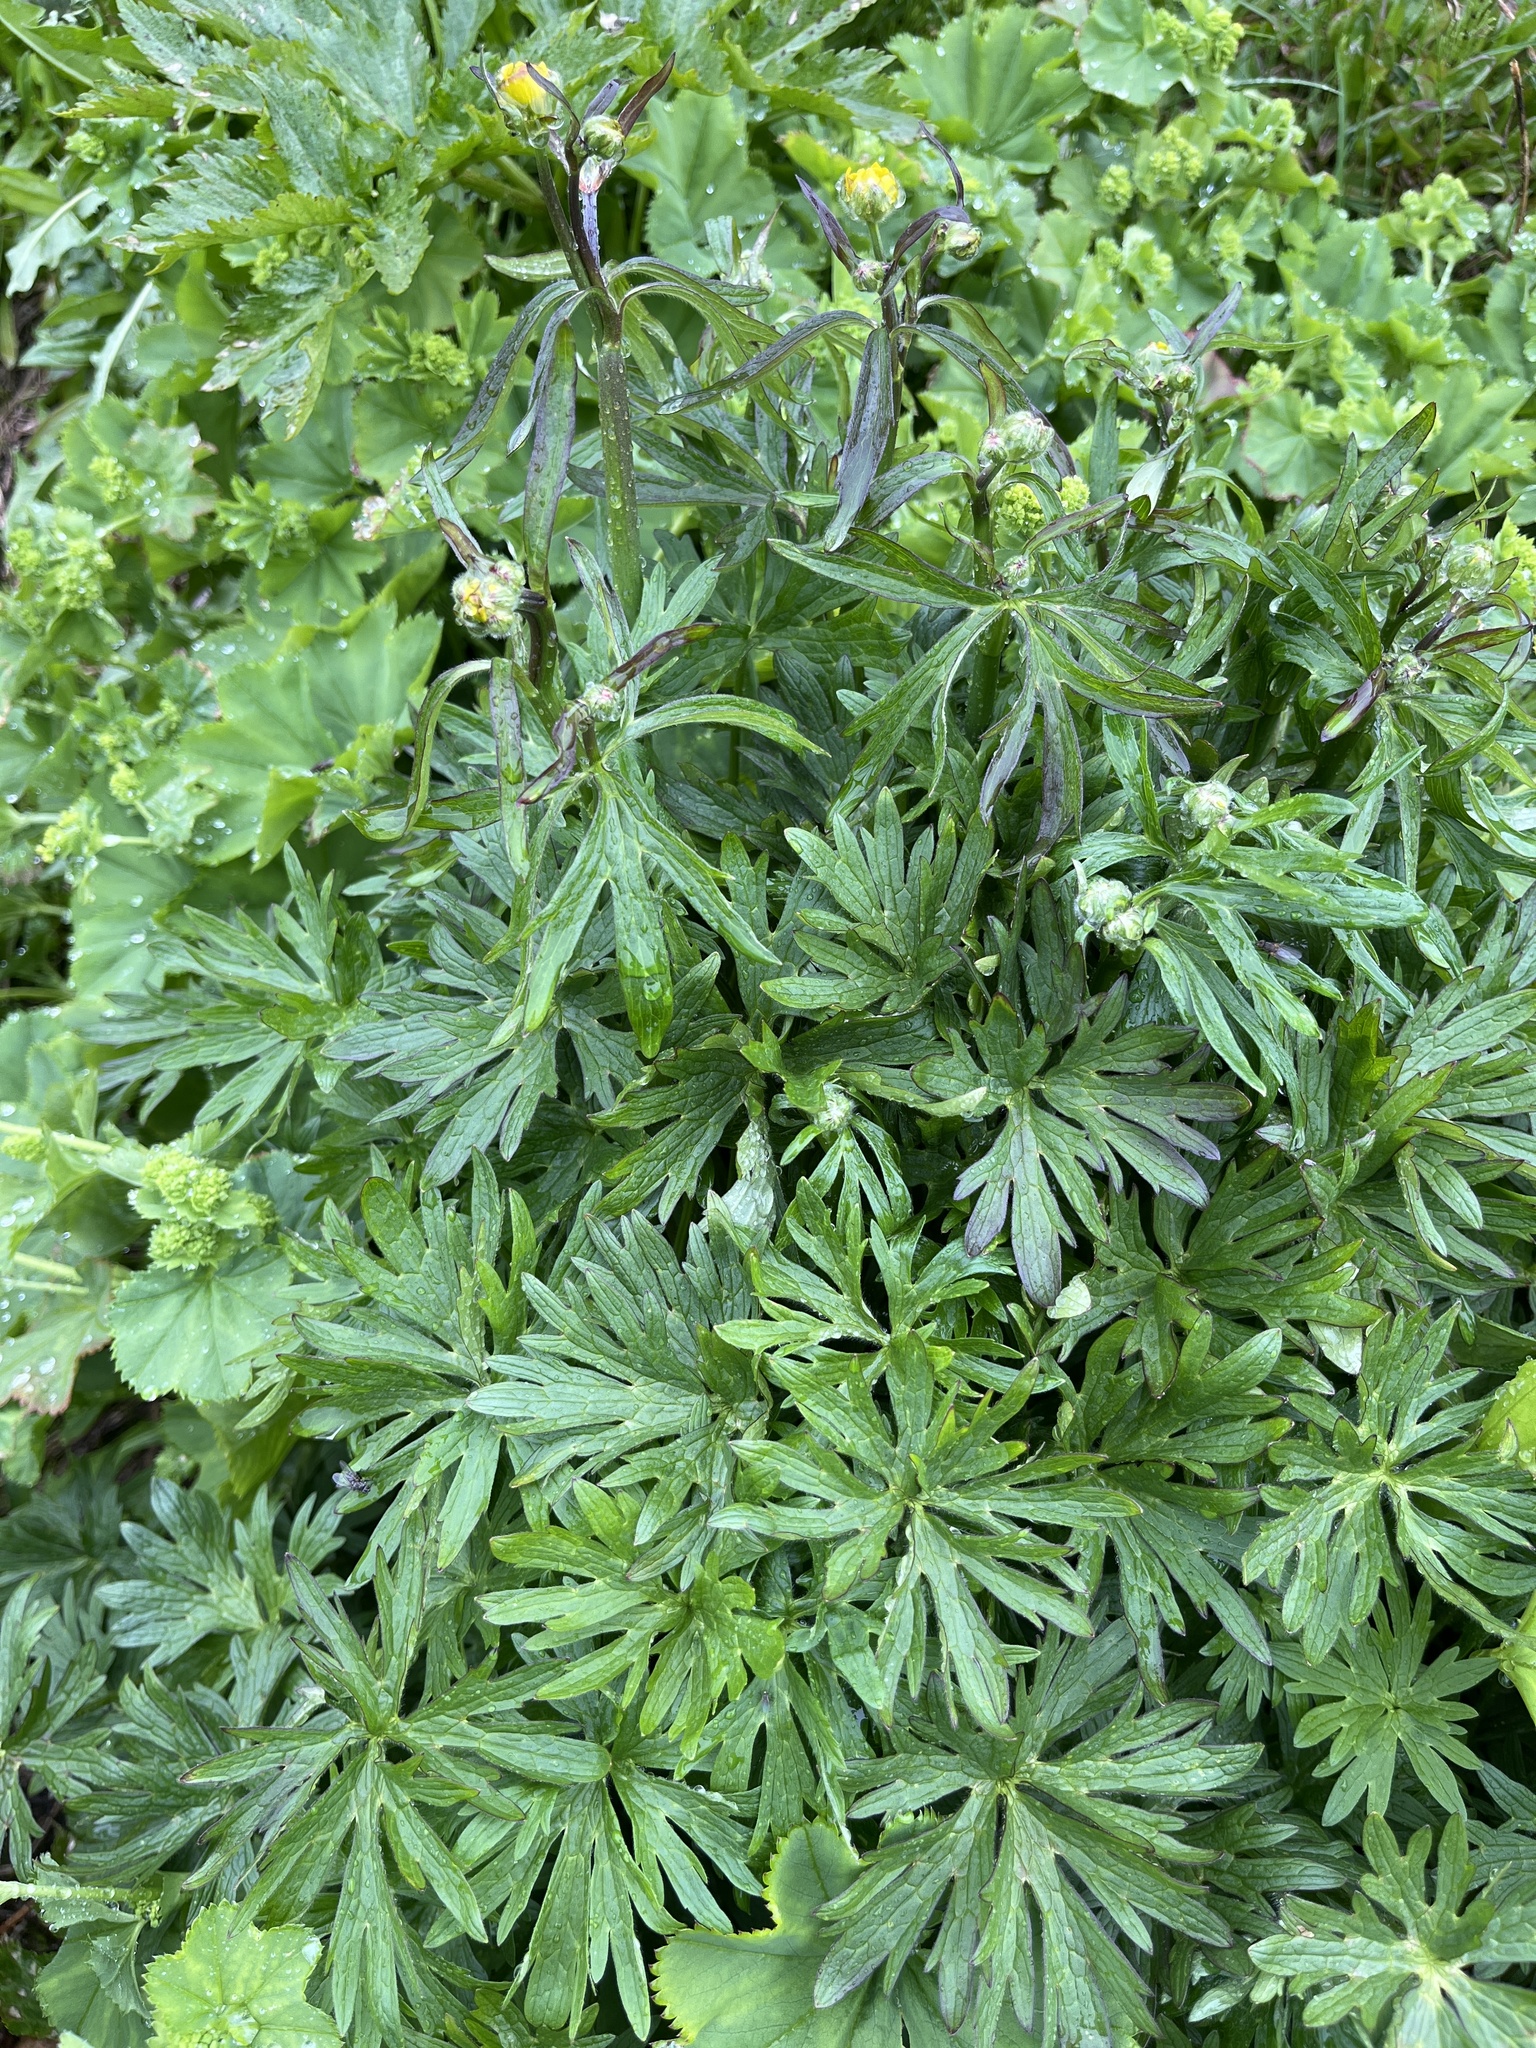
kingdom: Plantae
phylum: Tracheophyta
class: Magnoliopsida
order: Ranunculales
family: Ranunculaceae
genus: Ranunculus
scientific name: Ranunculus acris
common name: Meadow buttercup
